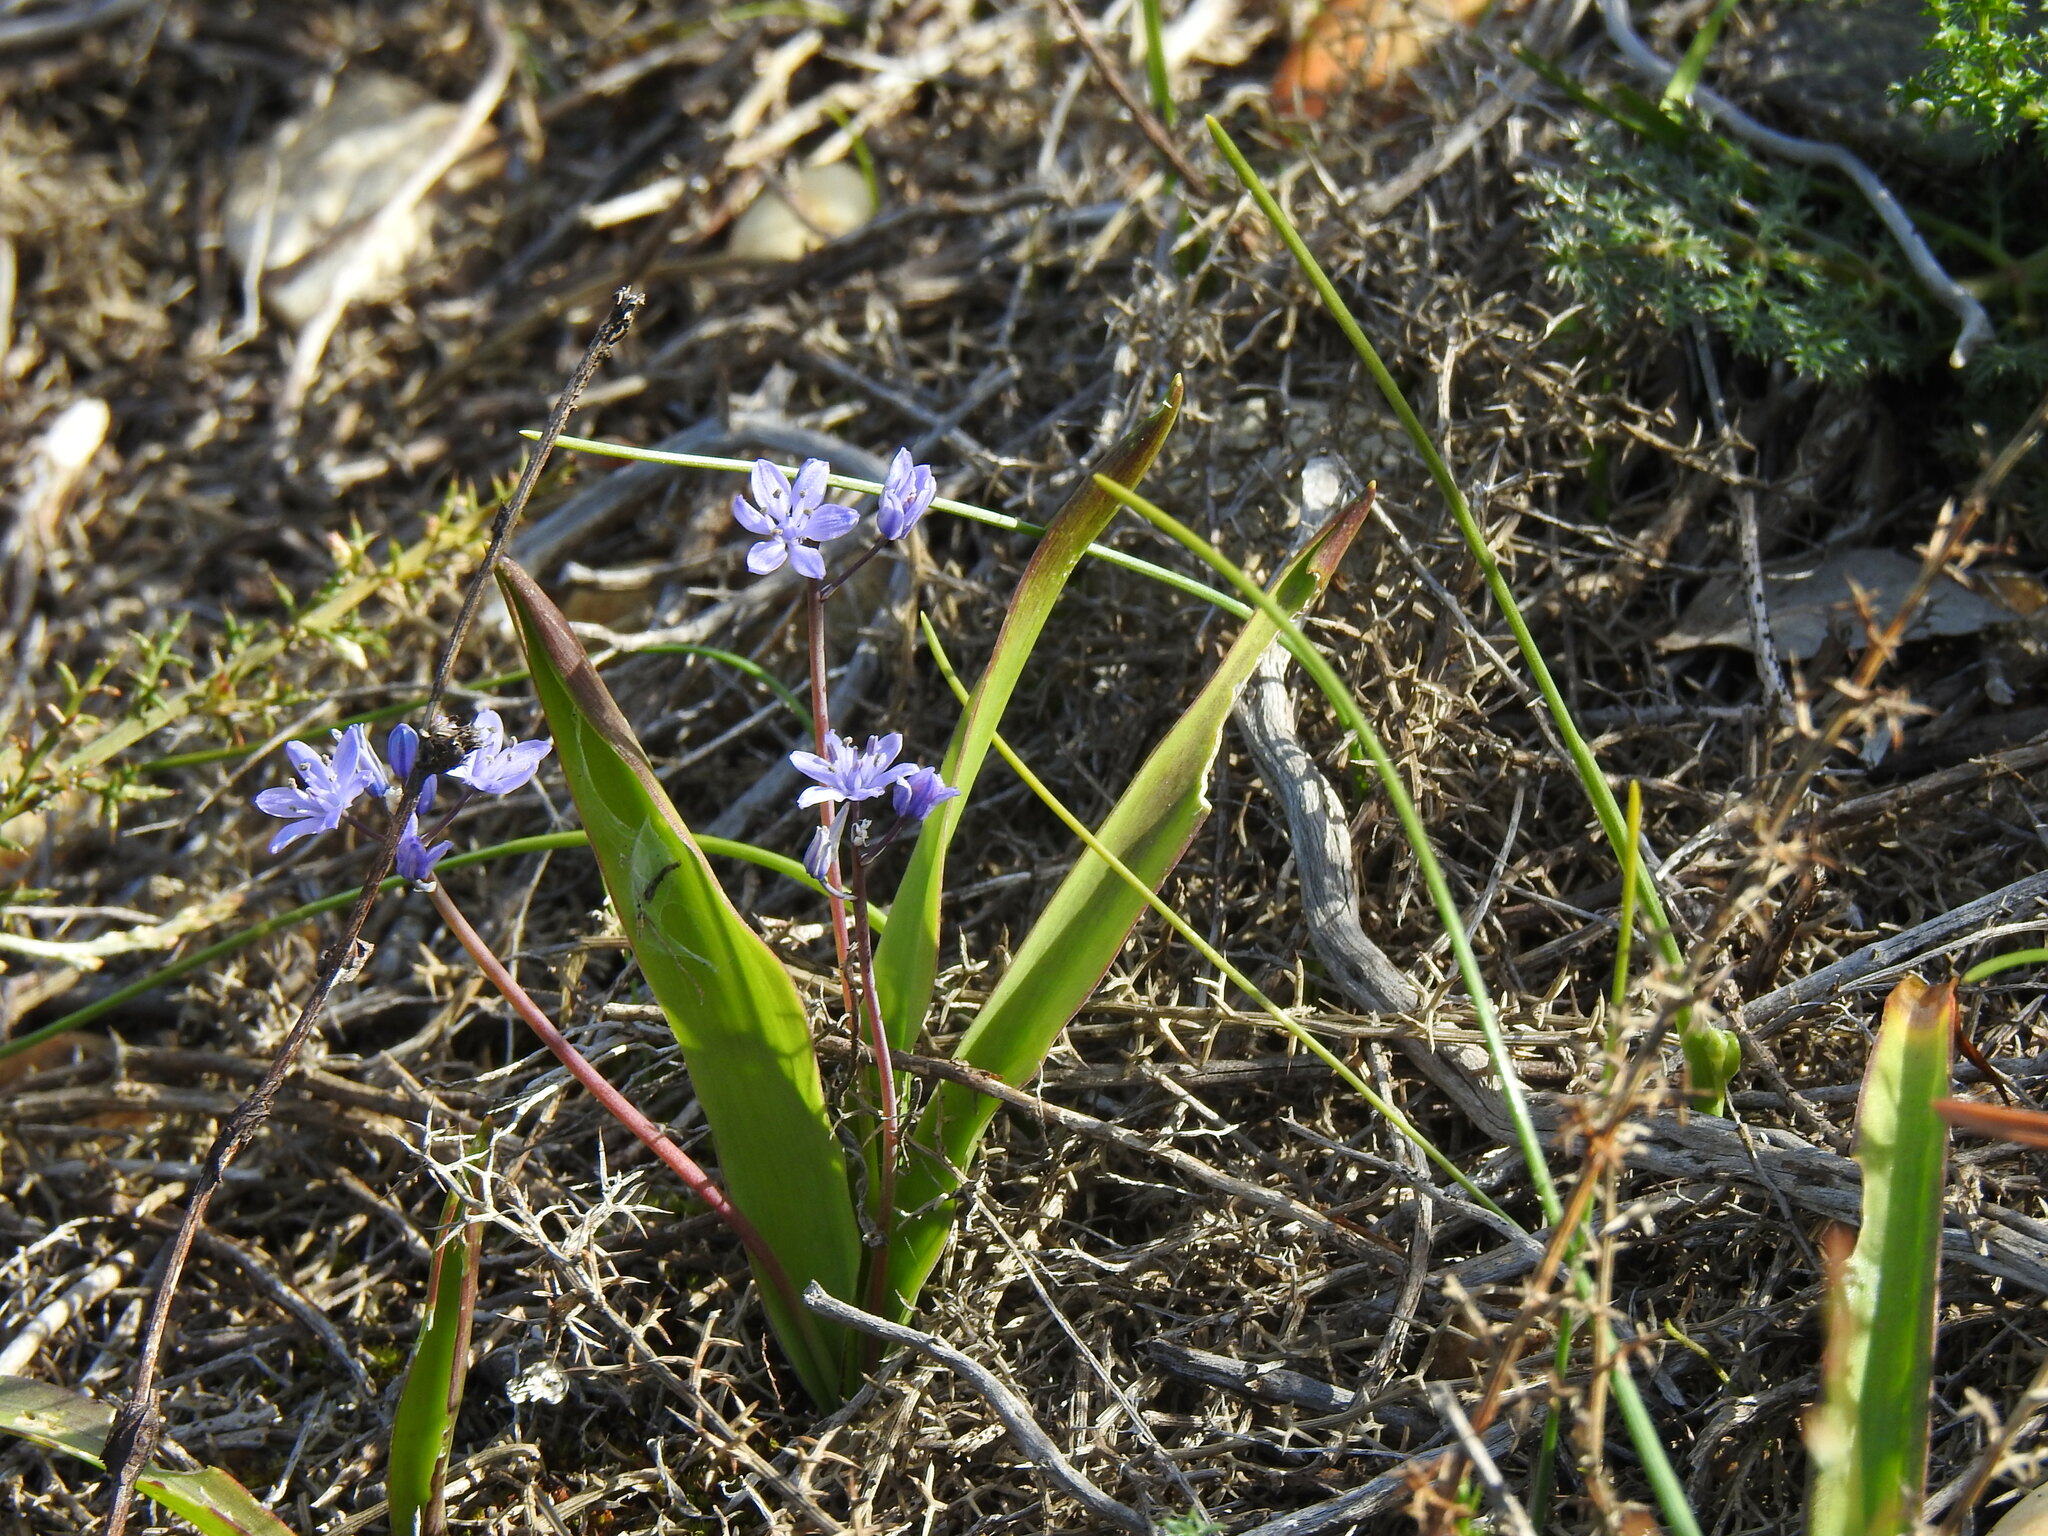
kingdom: Plantae
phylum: Tracheophyta
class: Liliopsida
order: Asparagales
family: Asparagaceae
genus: Scilla
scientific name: Scilla monophyllos
